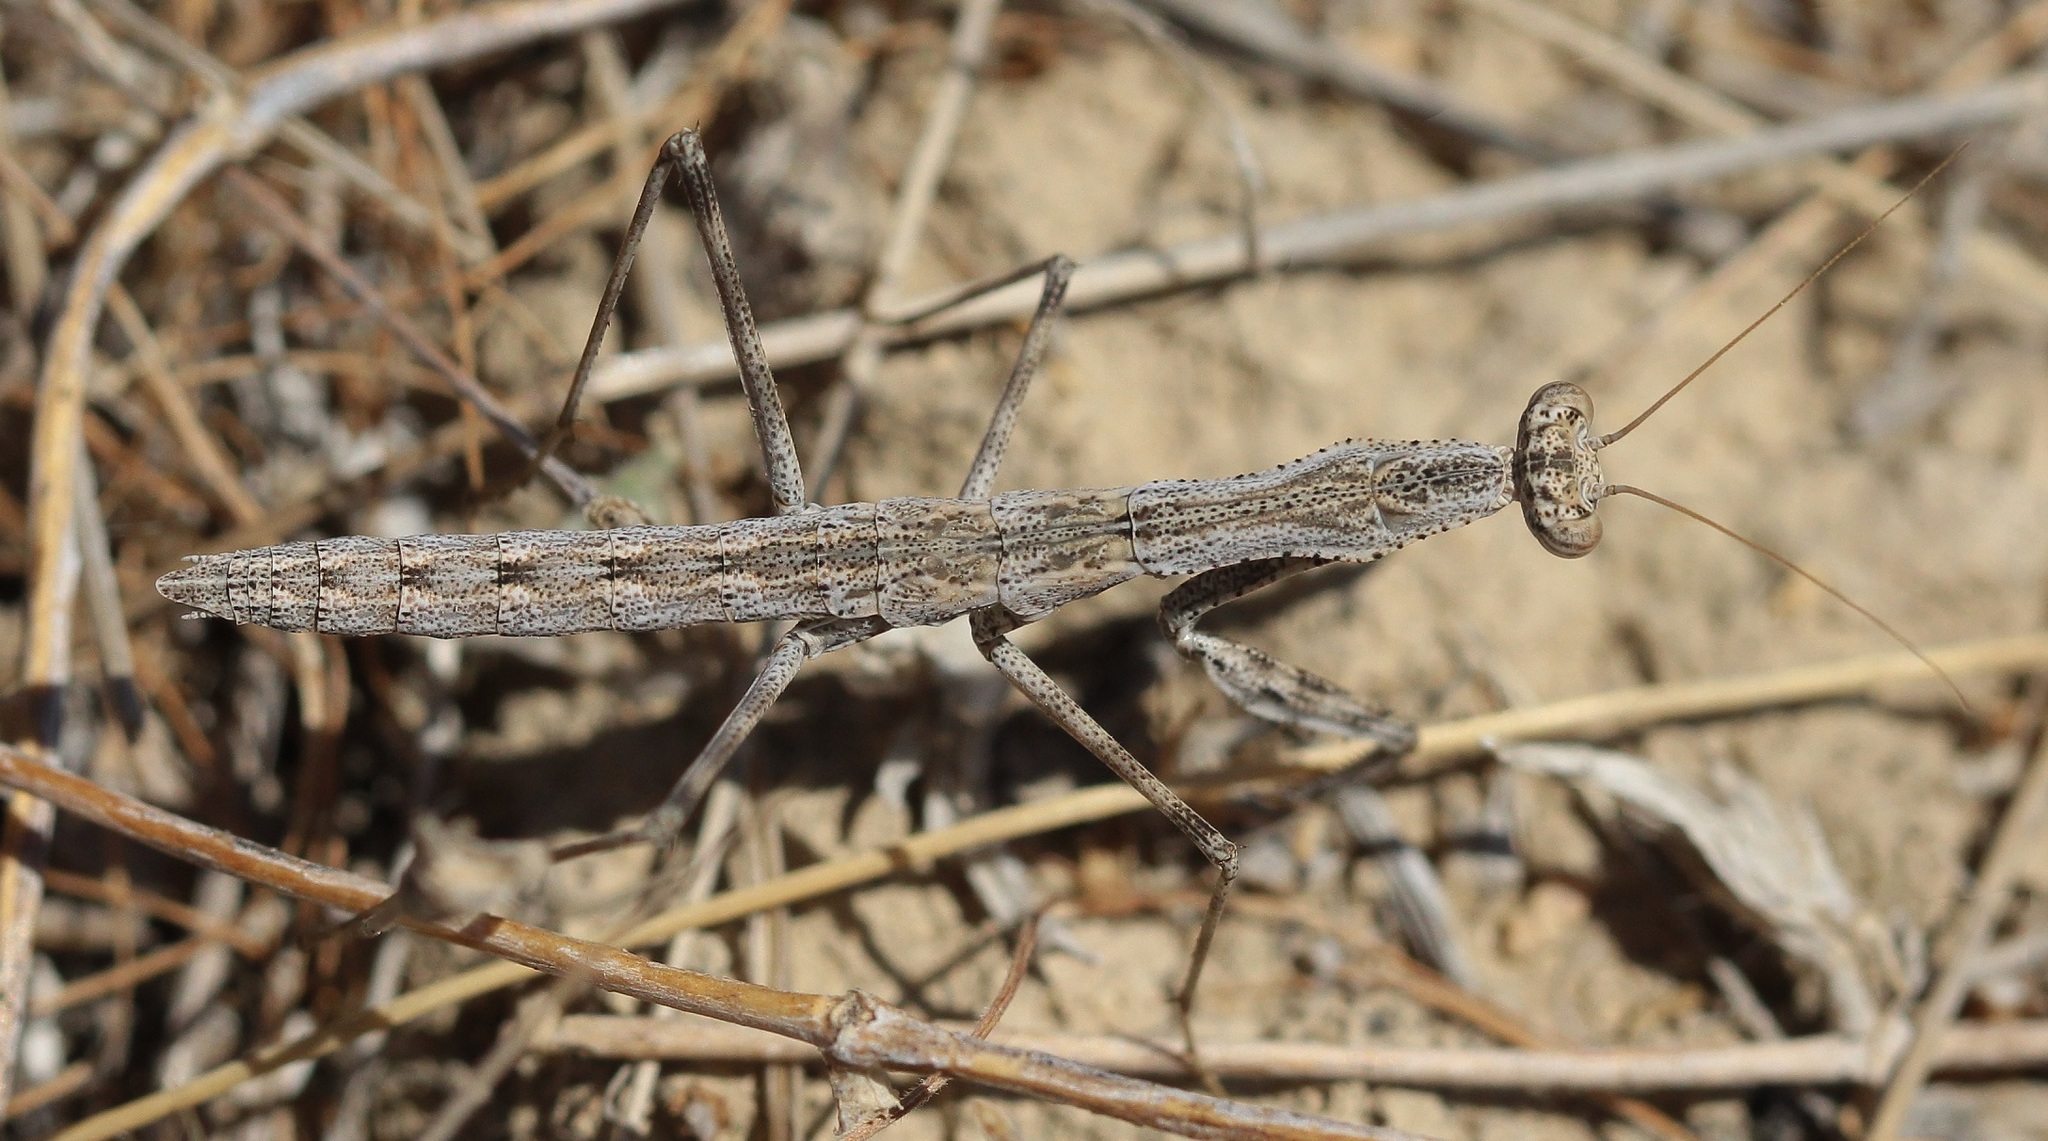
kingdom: Animalia
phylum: Arthropoda
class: Insecta
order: Mantodea
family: Rivetinidae
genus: Rivetina
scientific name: Rivetina nana
